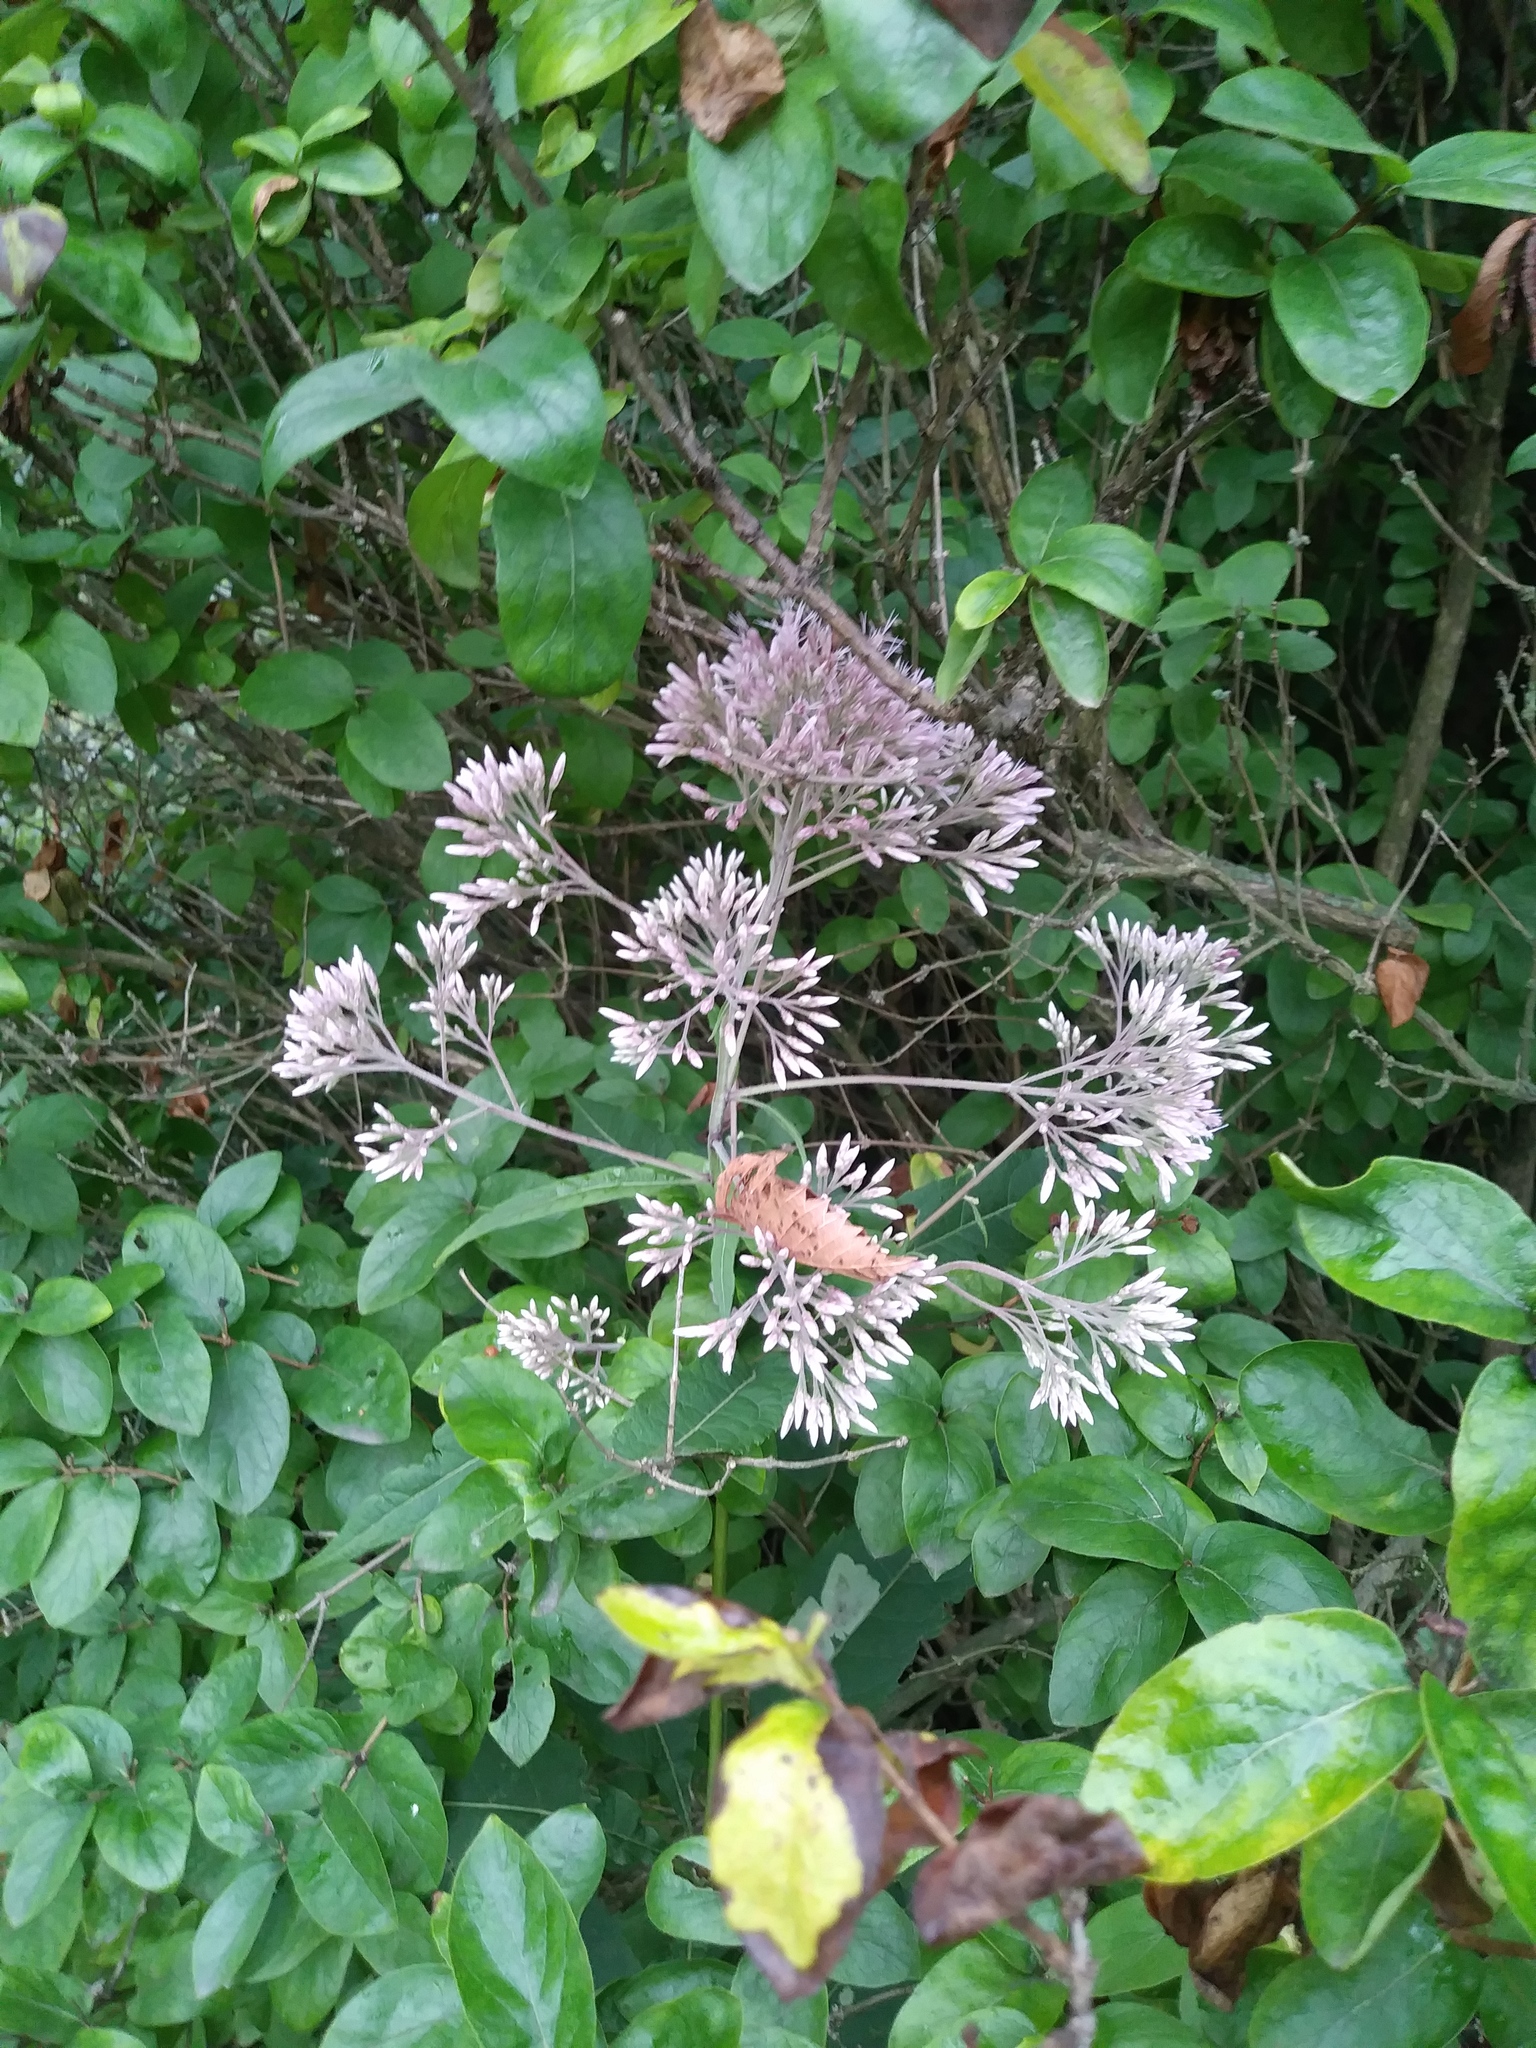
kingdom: Plantae
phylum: Tracheophyta
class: Magnoliopsida
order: Asterales
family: Asteraceae
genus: Eutrochium
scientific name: Eutrochium purpureum
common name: Gravelroot
